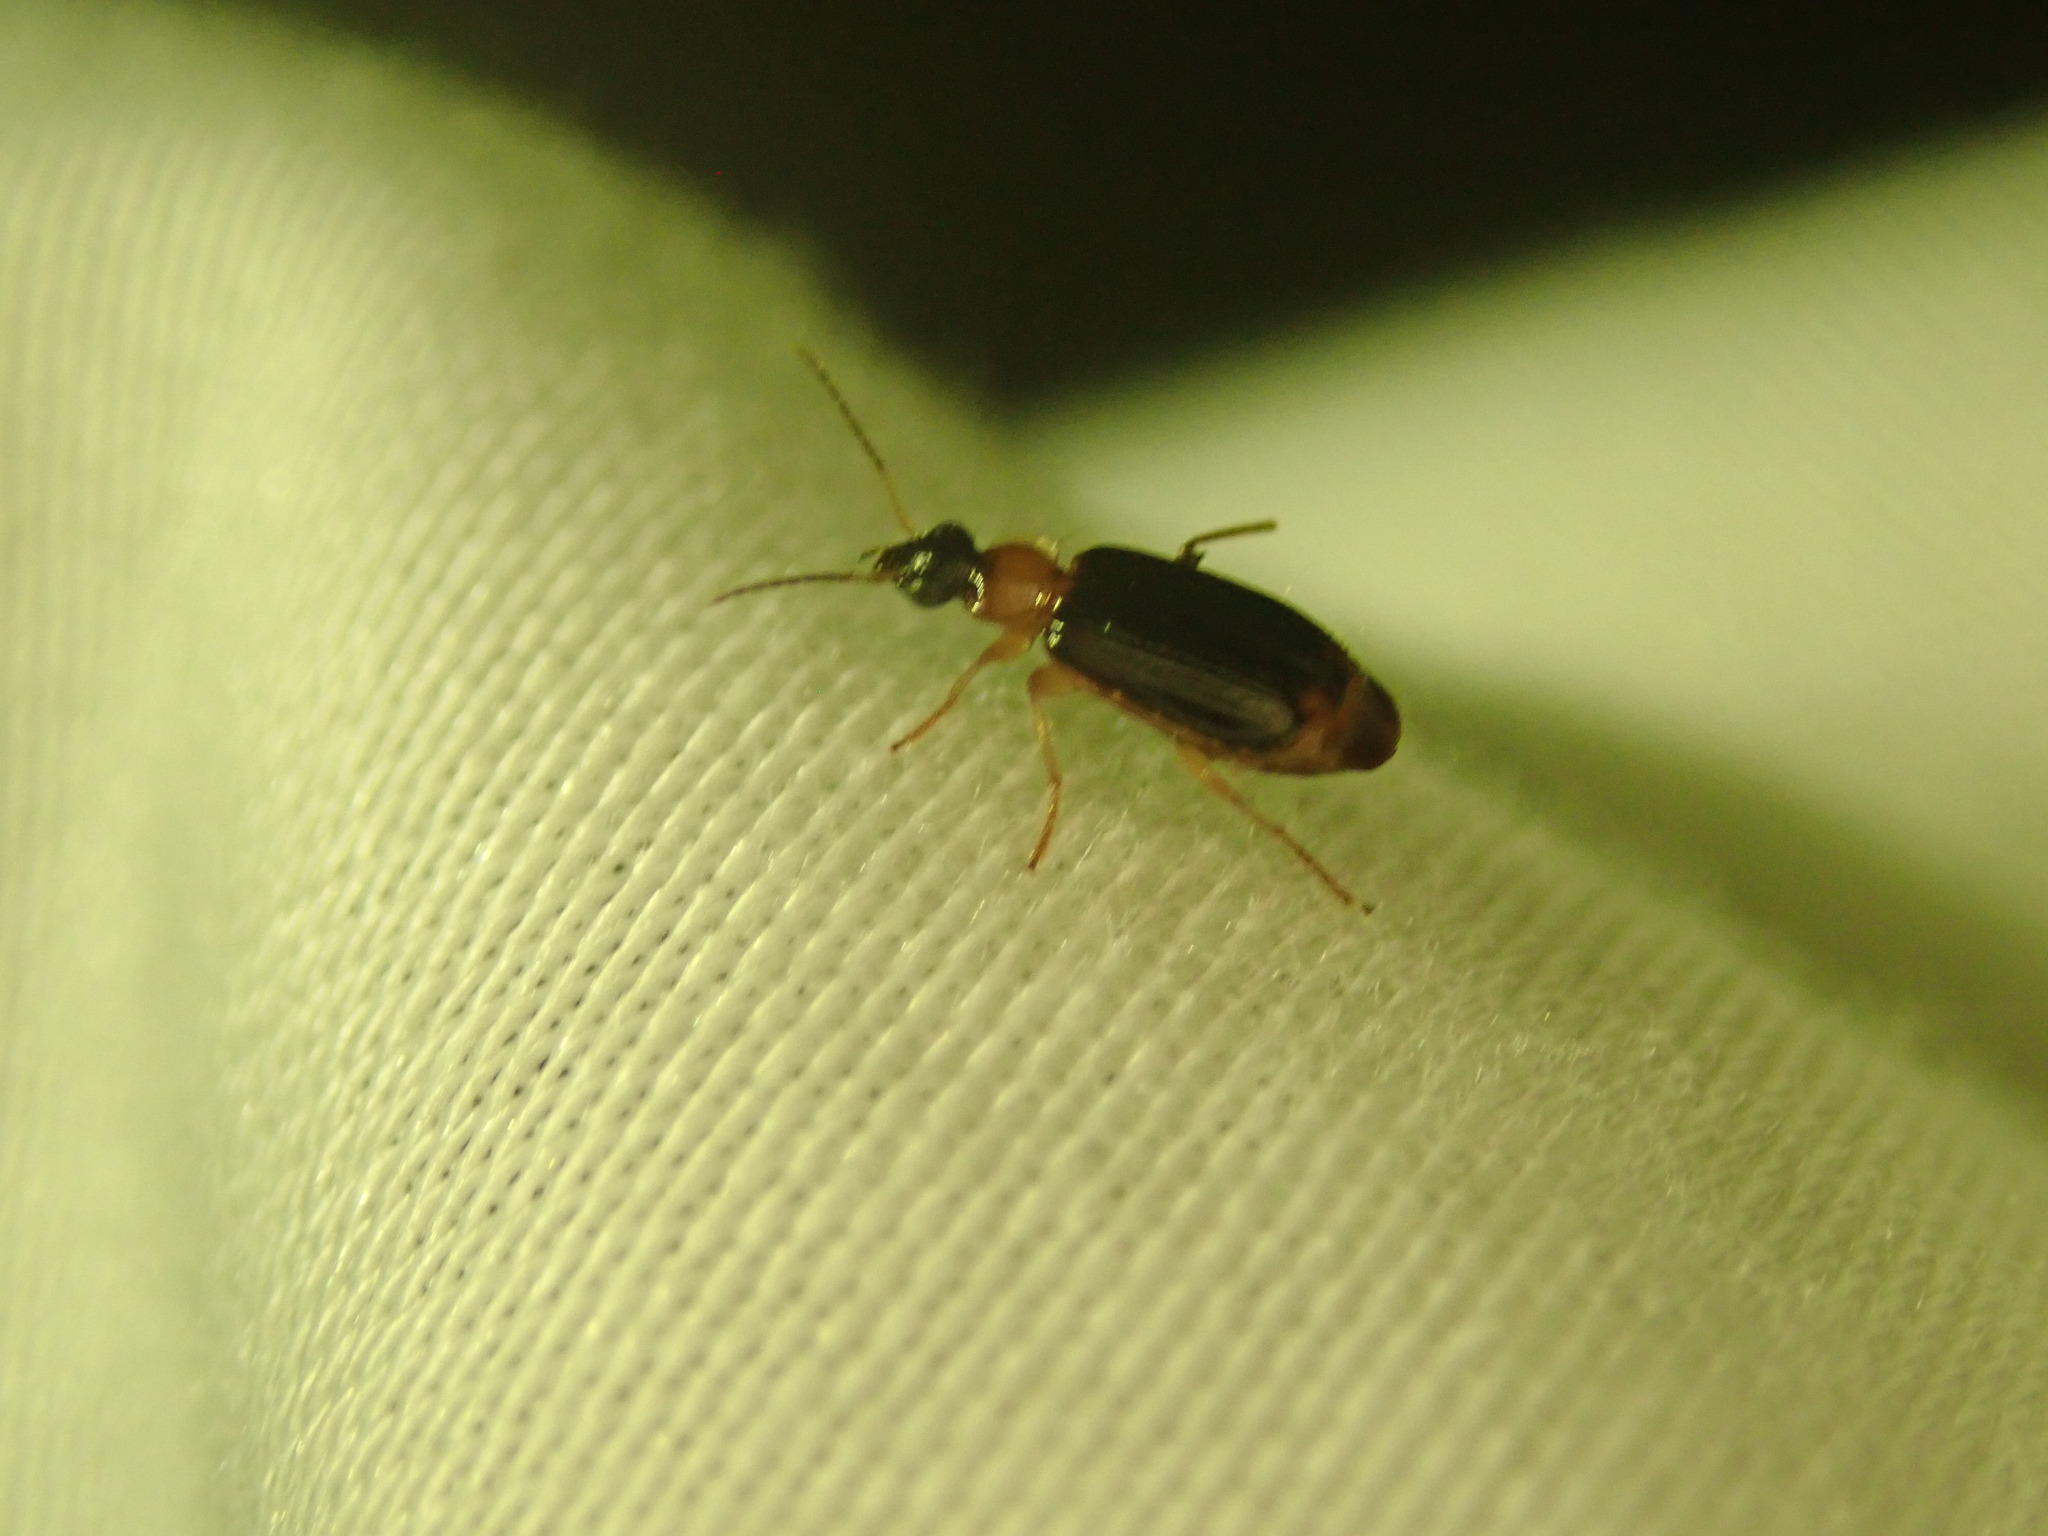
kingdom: Animalia
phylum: Arthropoda
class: Insecta
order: Coleoptera
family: Carabidae
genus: Lebia
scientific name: Lebia analis
